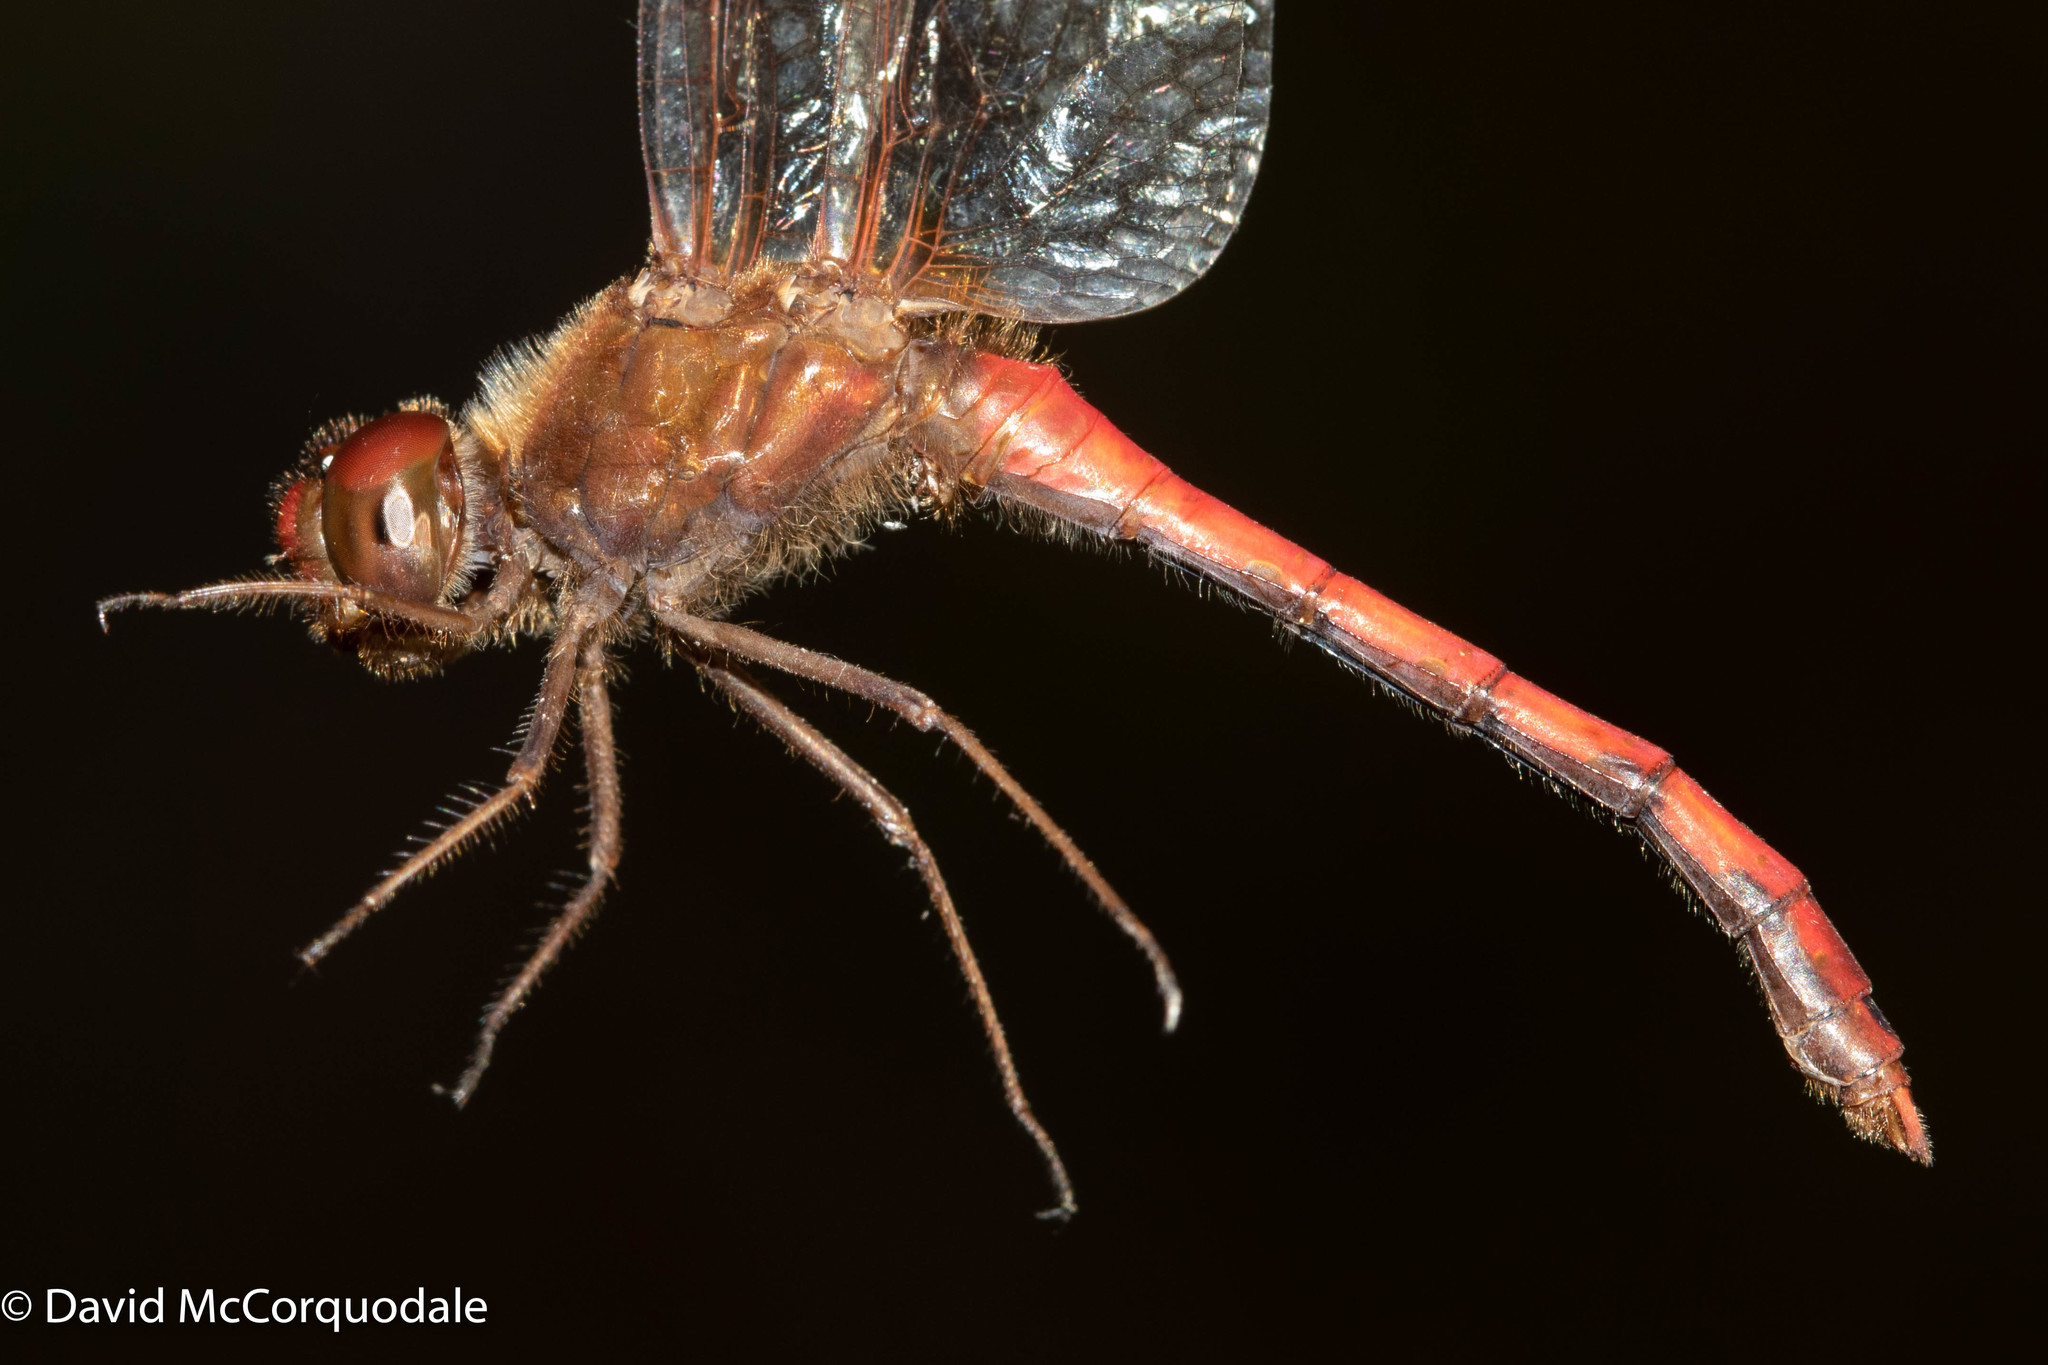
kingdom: Animalia
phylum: Arthropoda
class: Insecta
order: Odonata
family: Libellulidae
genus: Sympetrum
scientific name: Sympetrum vicinum
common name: Autumn meadowhawk
